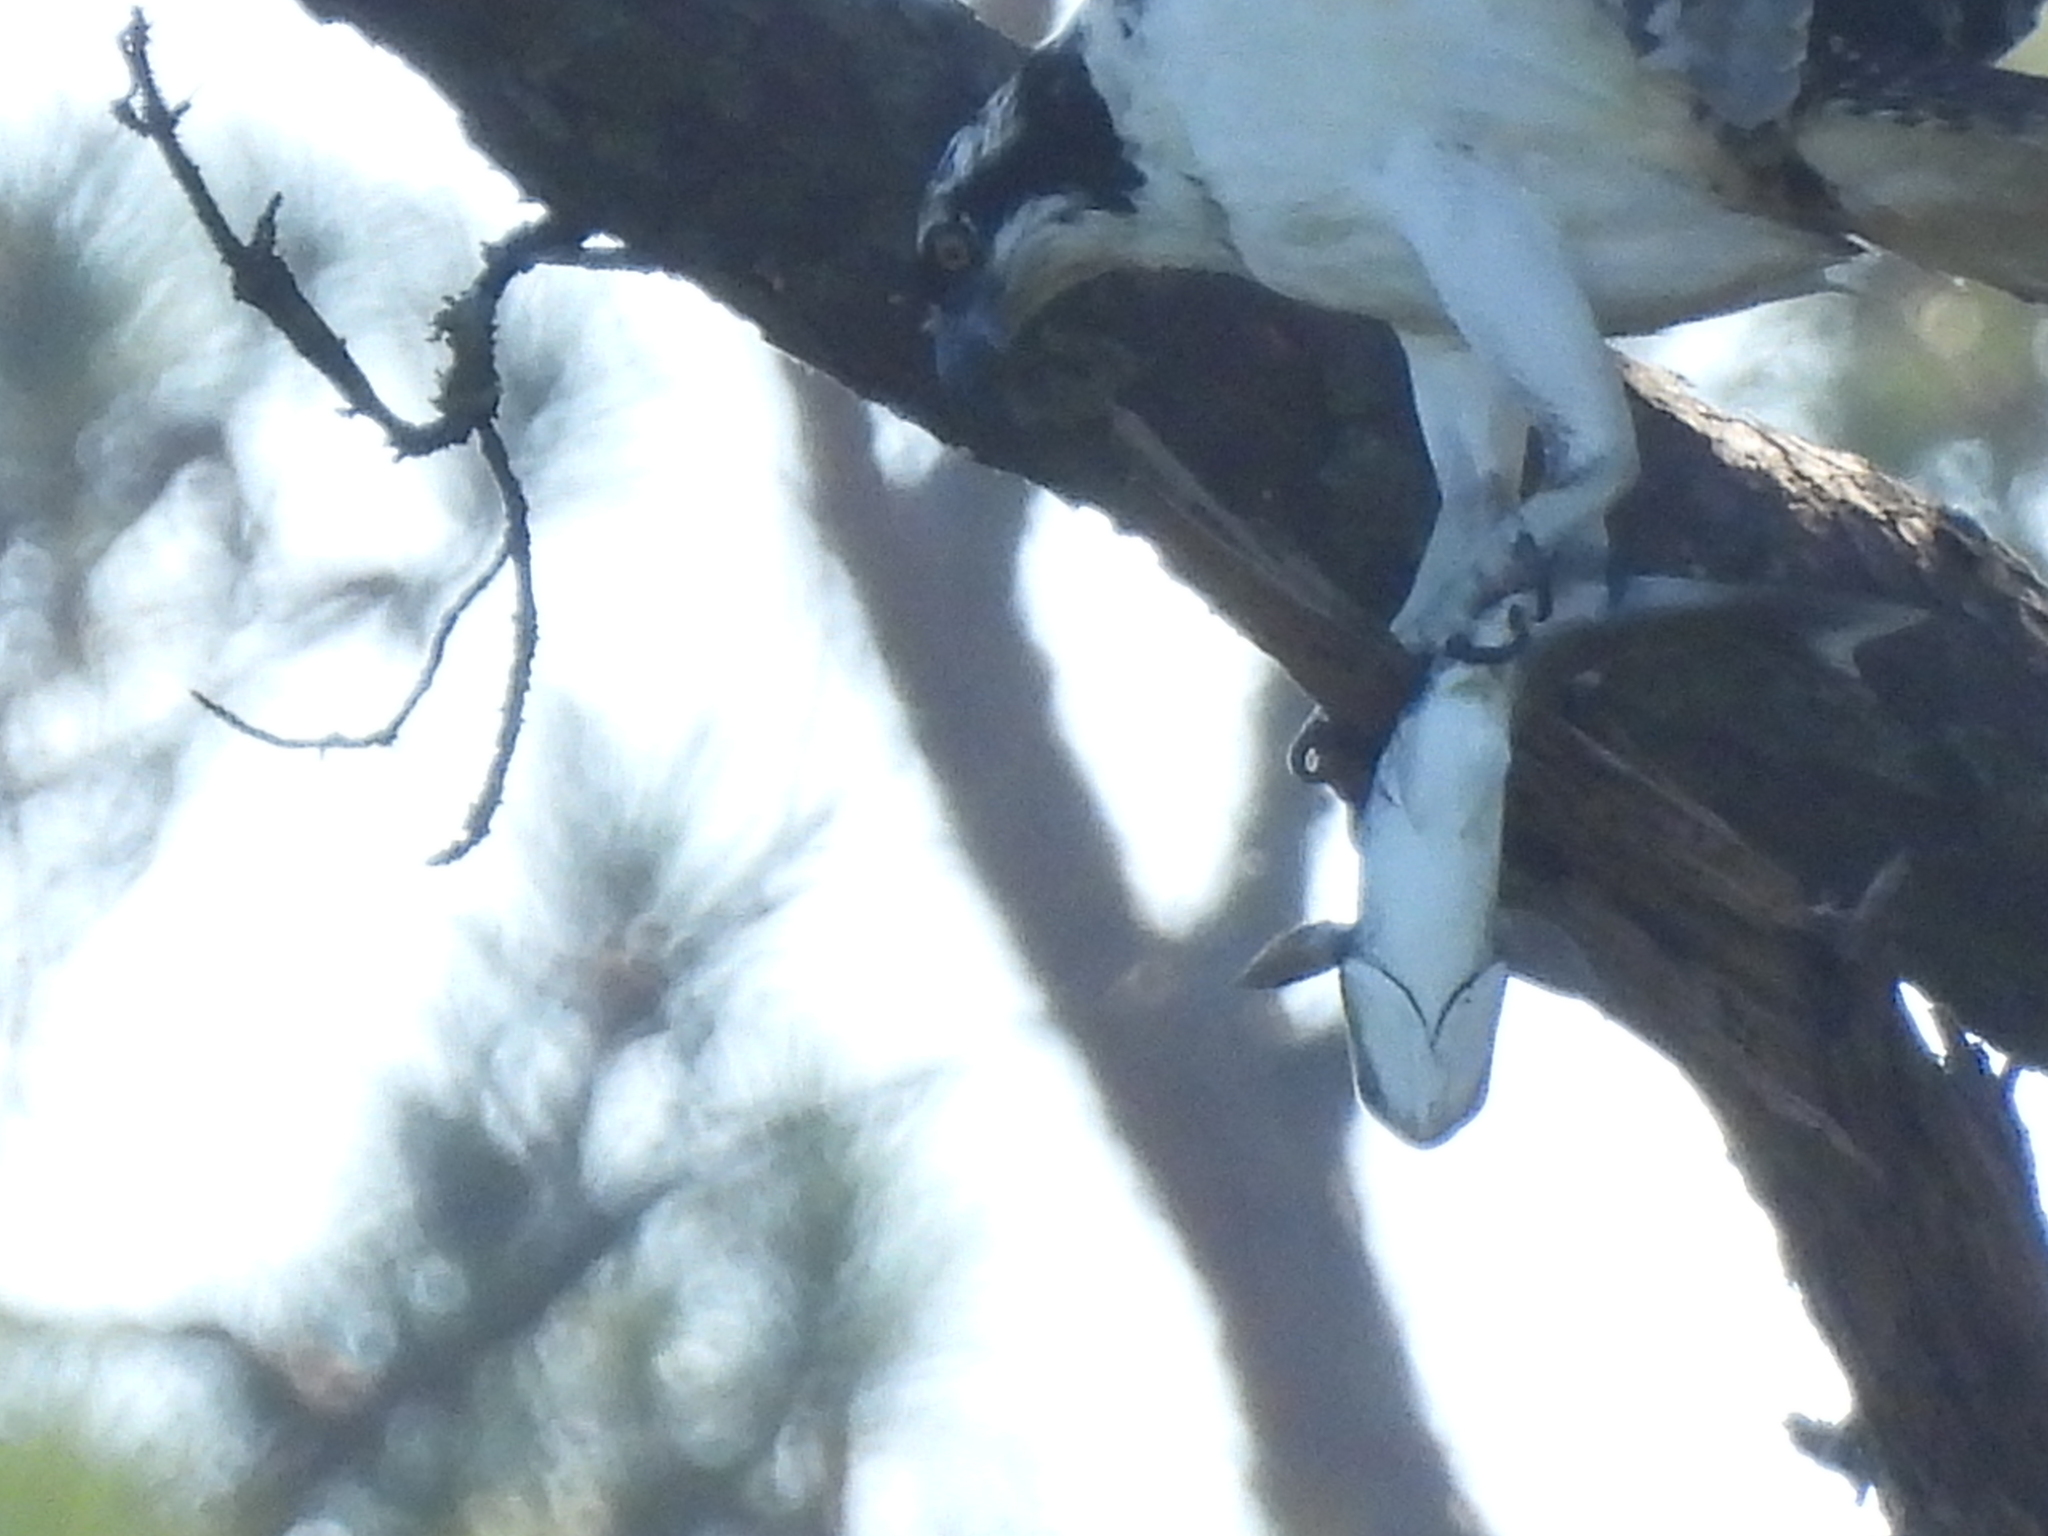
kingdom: Animalia
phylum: Chordata
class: Aves
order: Accipitriformes
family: Pandionidae
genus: Pandion
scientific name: Pandion haliaetus
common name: Osprey
